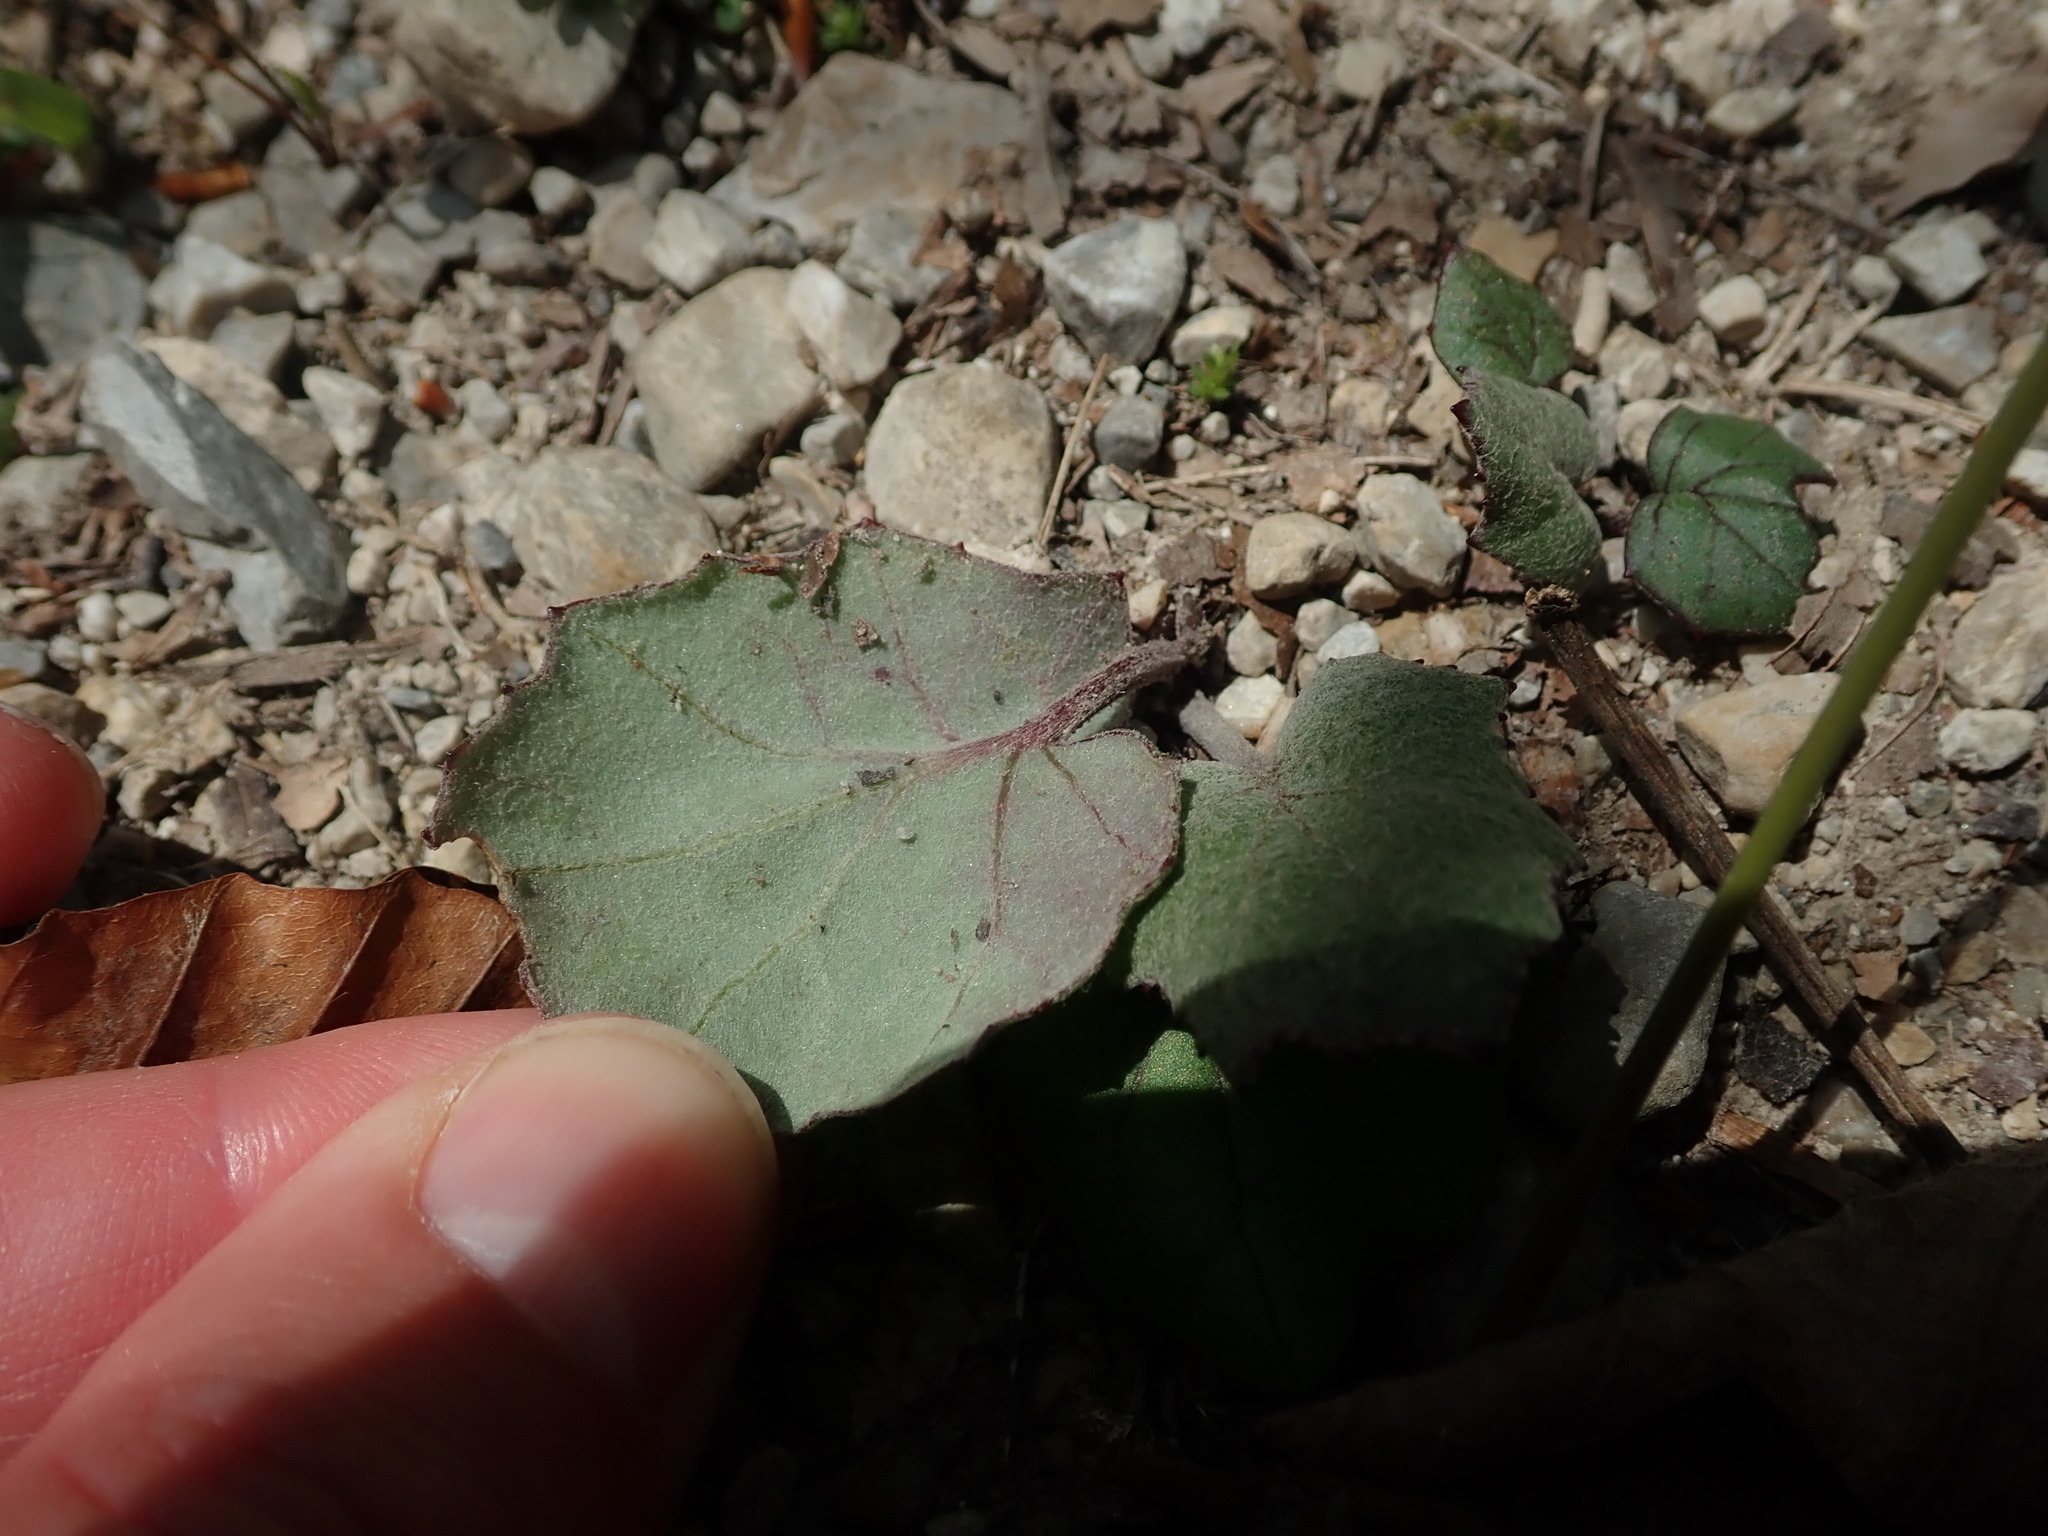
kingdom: Plantae
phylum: Tracheophyta
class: Magnoliopsida
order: Asterales
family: Asteraceae
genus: Tussilago
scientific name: Tussilago farfara
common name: Coltsfoot
